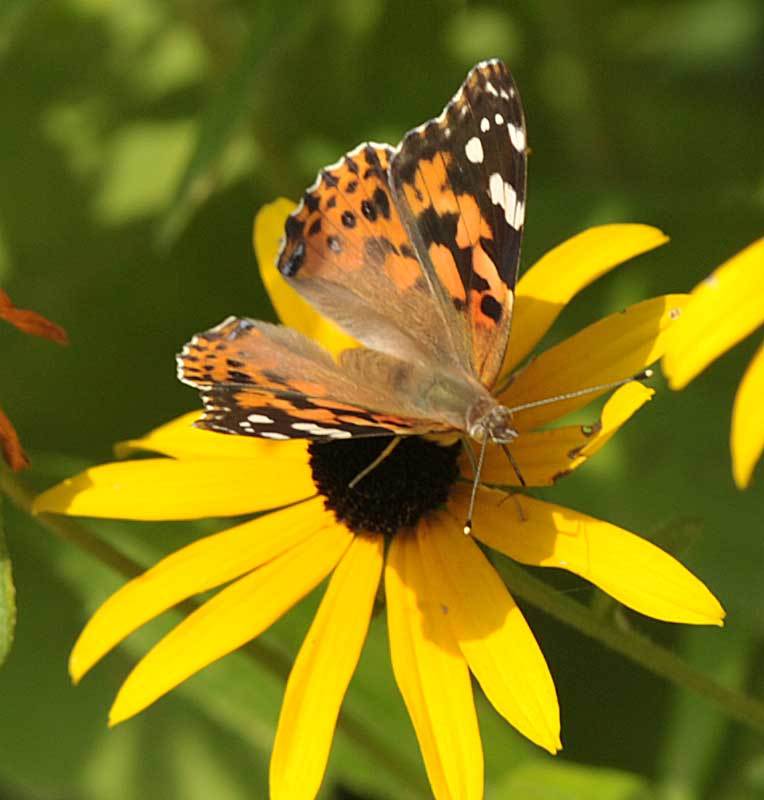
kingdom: Animalia
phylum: Arthropoda
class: Insecta
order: Lepidoptera
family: Nymphalidae
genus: Vanessa
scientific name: Vanessa cardui
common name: Painted lady
